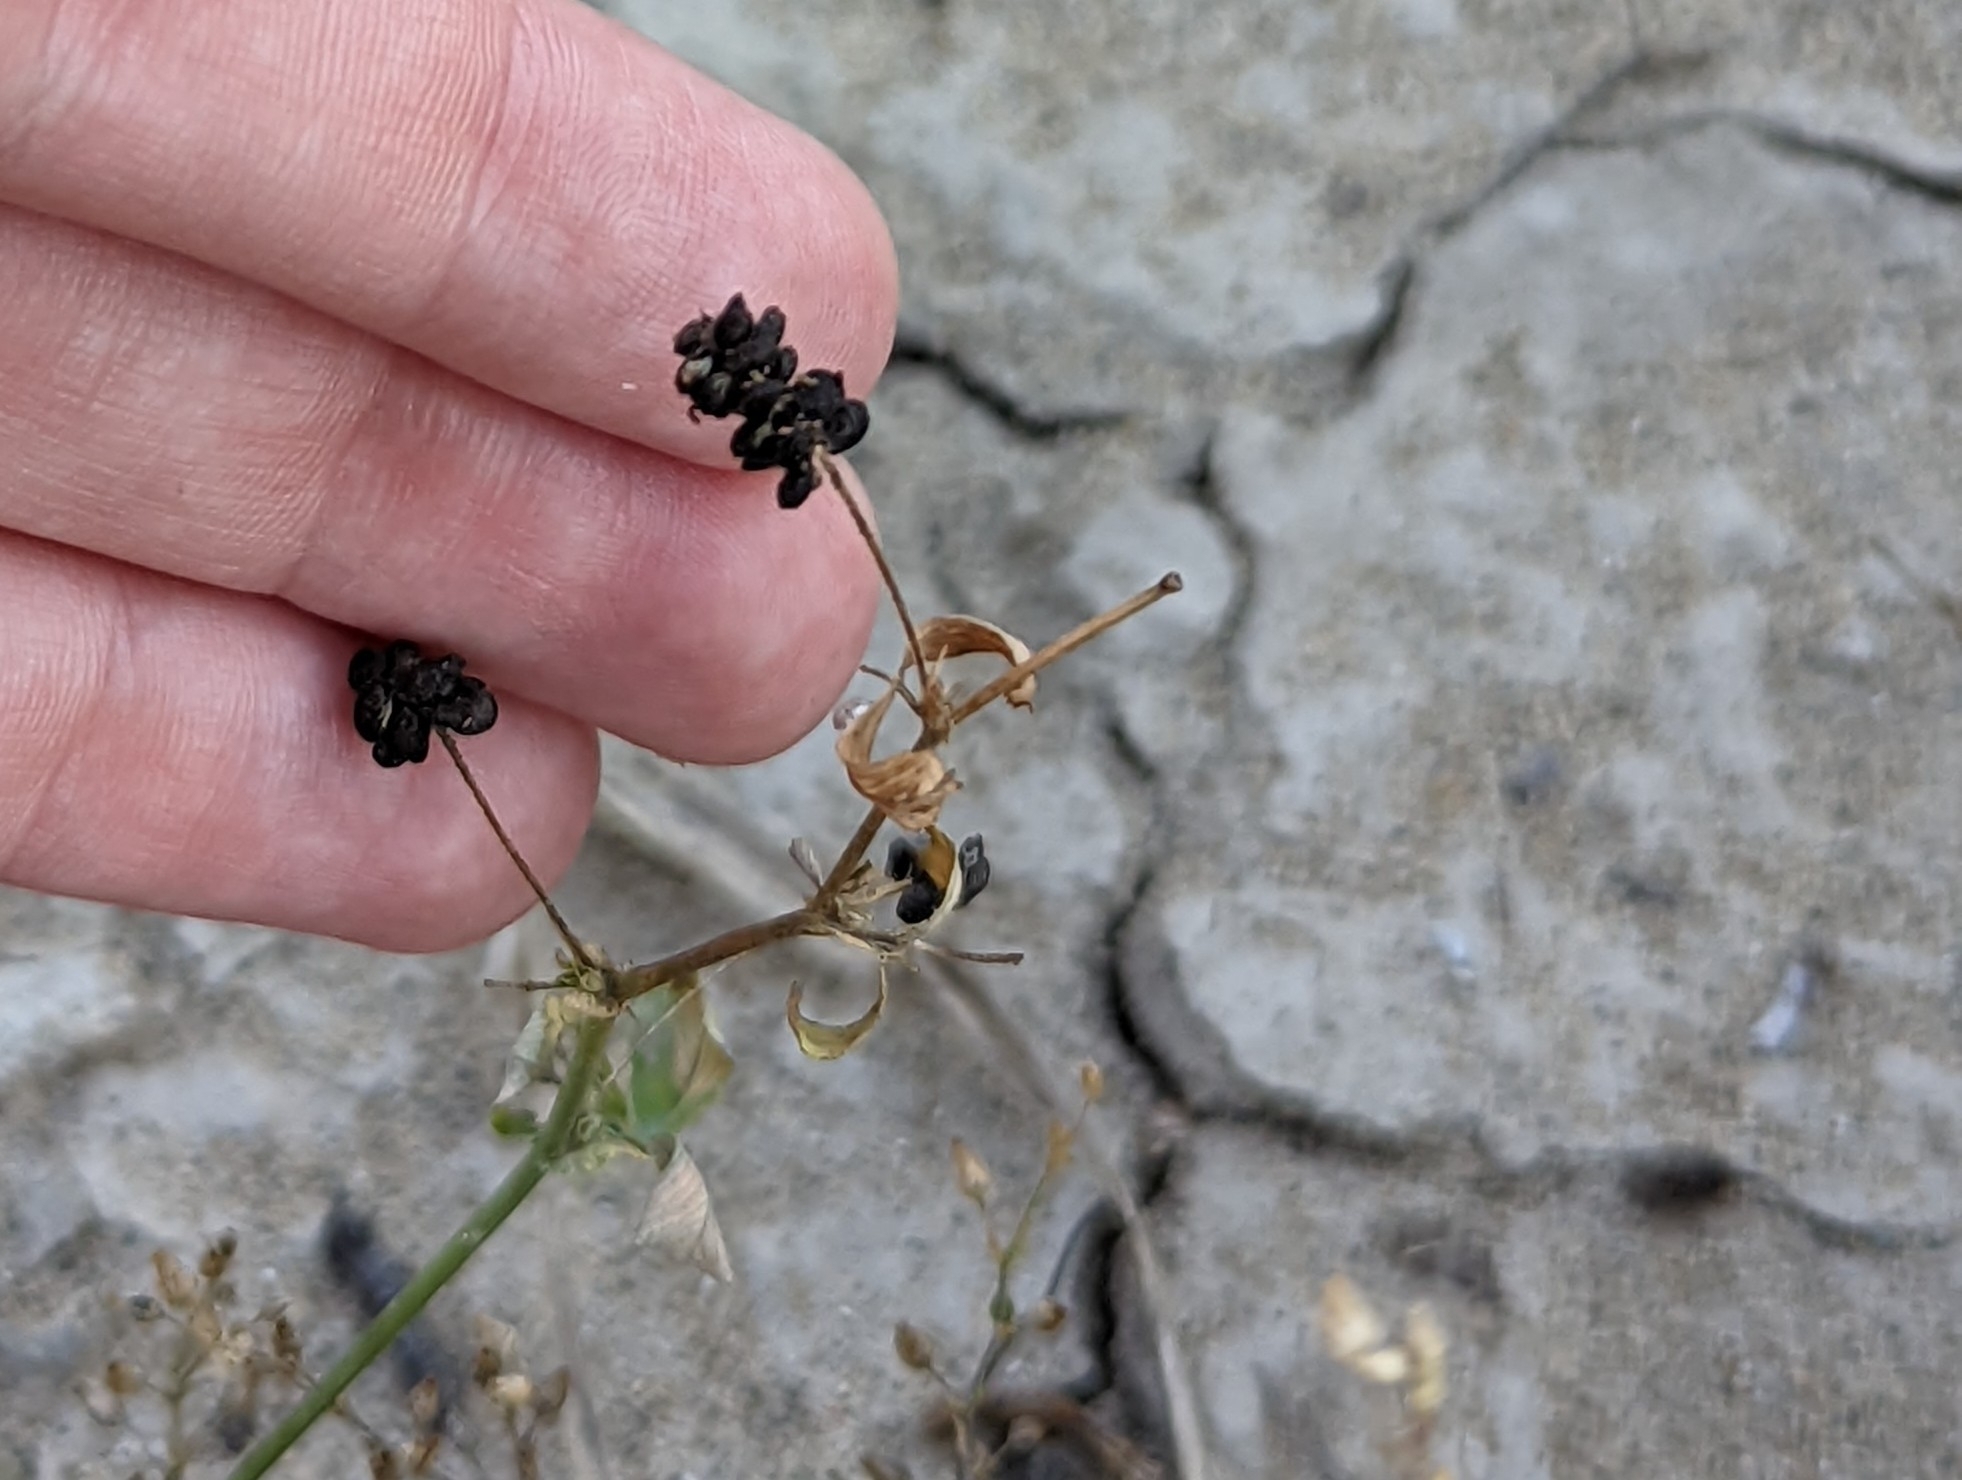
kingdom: Plantae
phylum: Tracheophyta
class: Magnoliopsida
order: Fabales
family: Fabaceae
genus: Medicago
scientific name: Medicago lupulina
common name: Black medick
